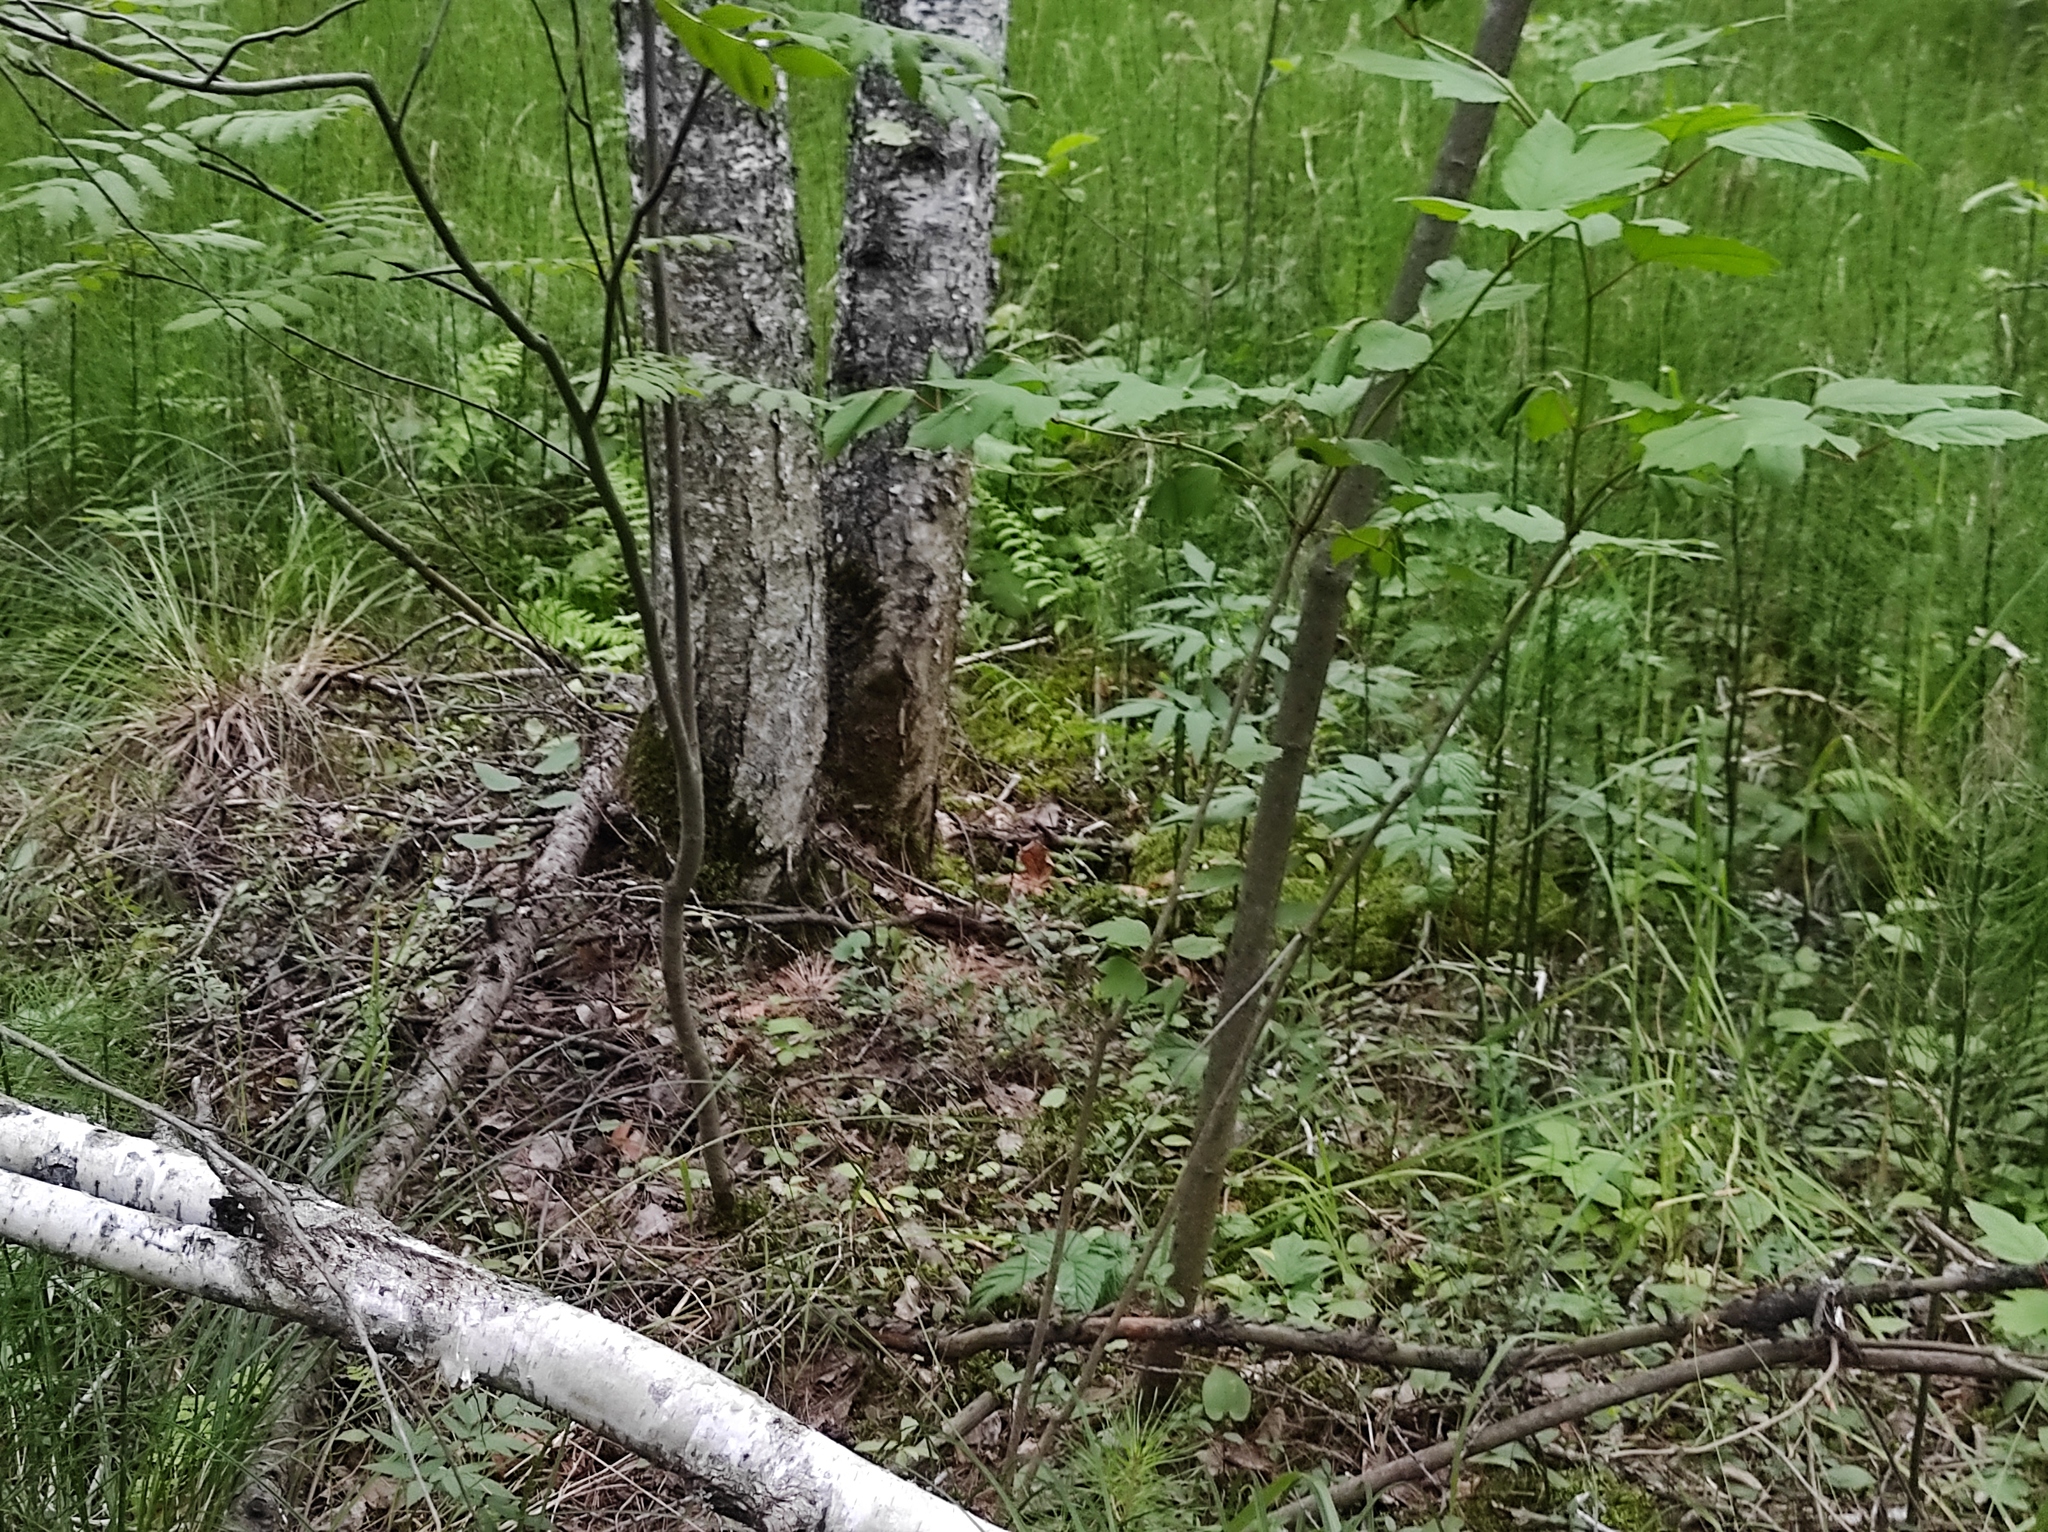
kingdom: Plantae
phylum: Tracheophyta
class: Polypodiopsida
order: Equisetales
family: Equisetaceae
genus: Equisetum
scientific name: Equisetum fluviatile
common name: Water horsetail
